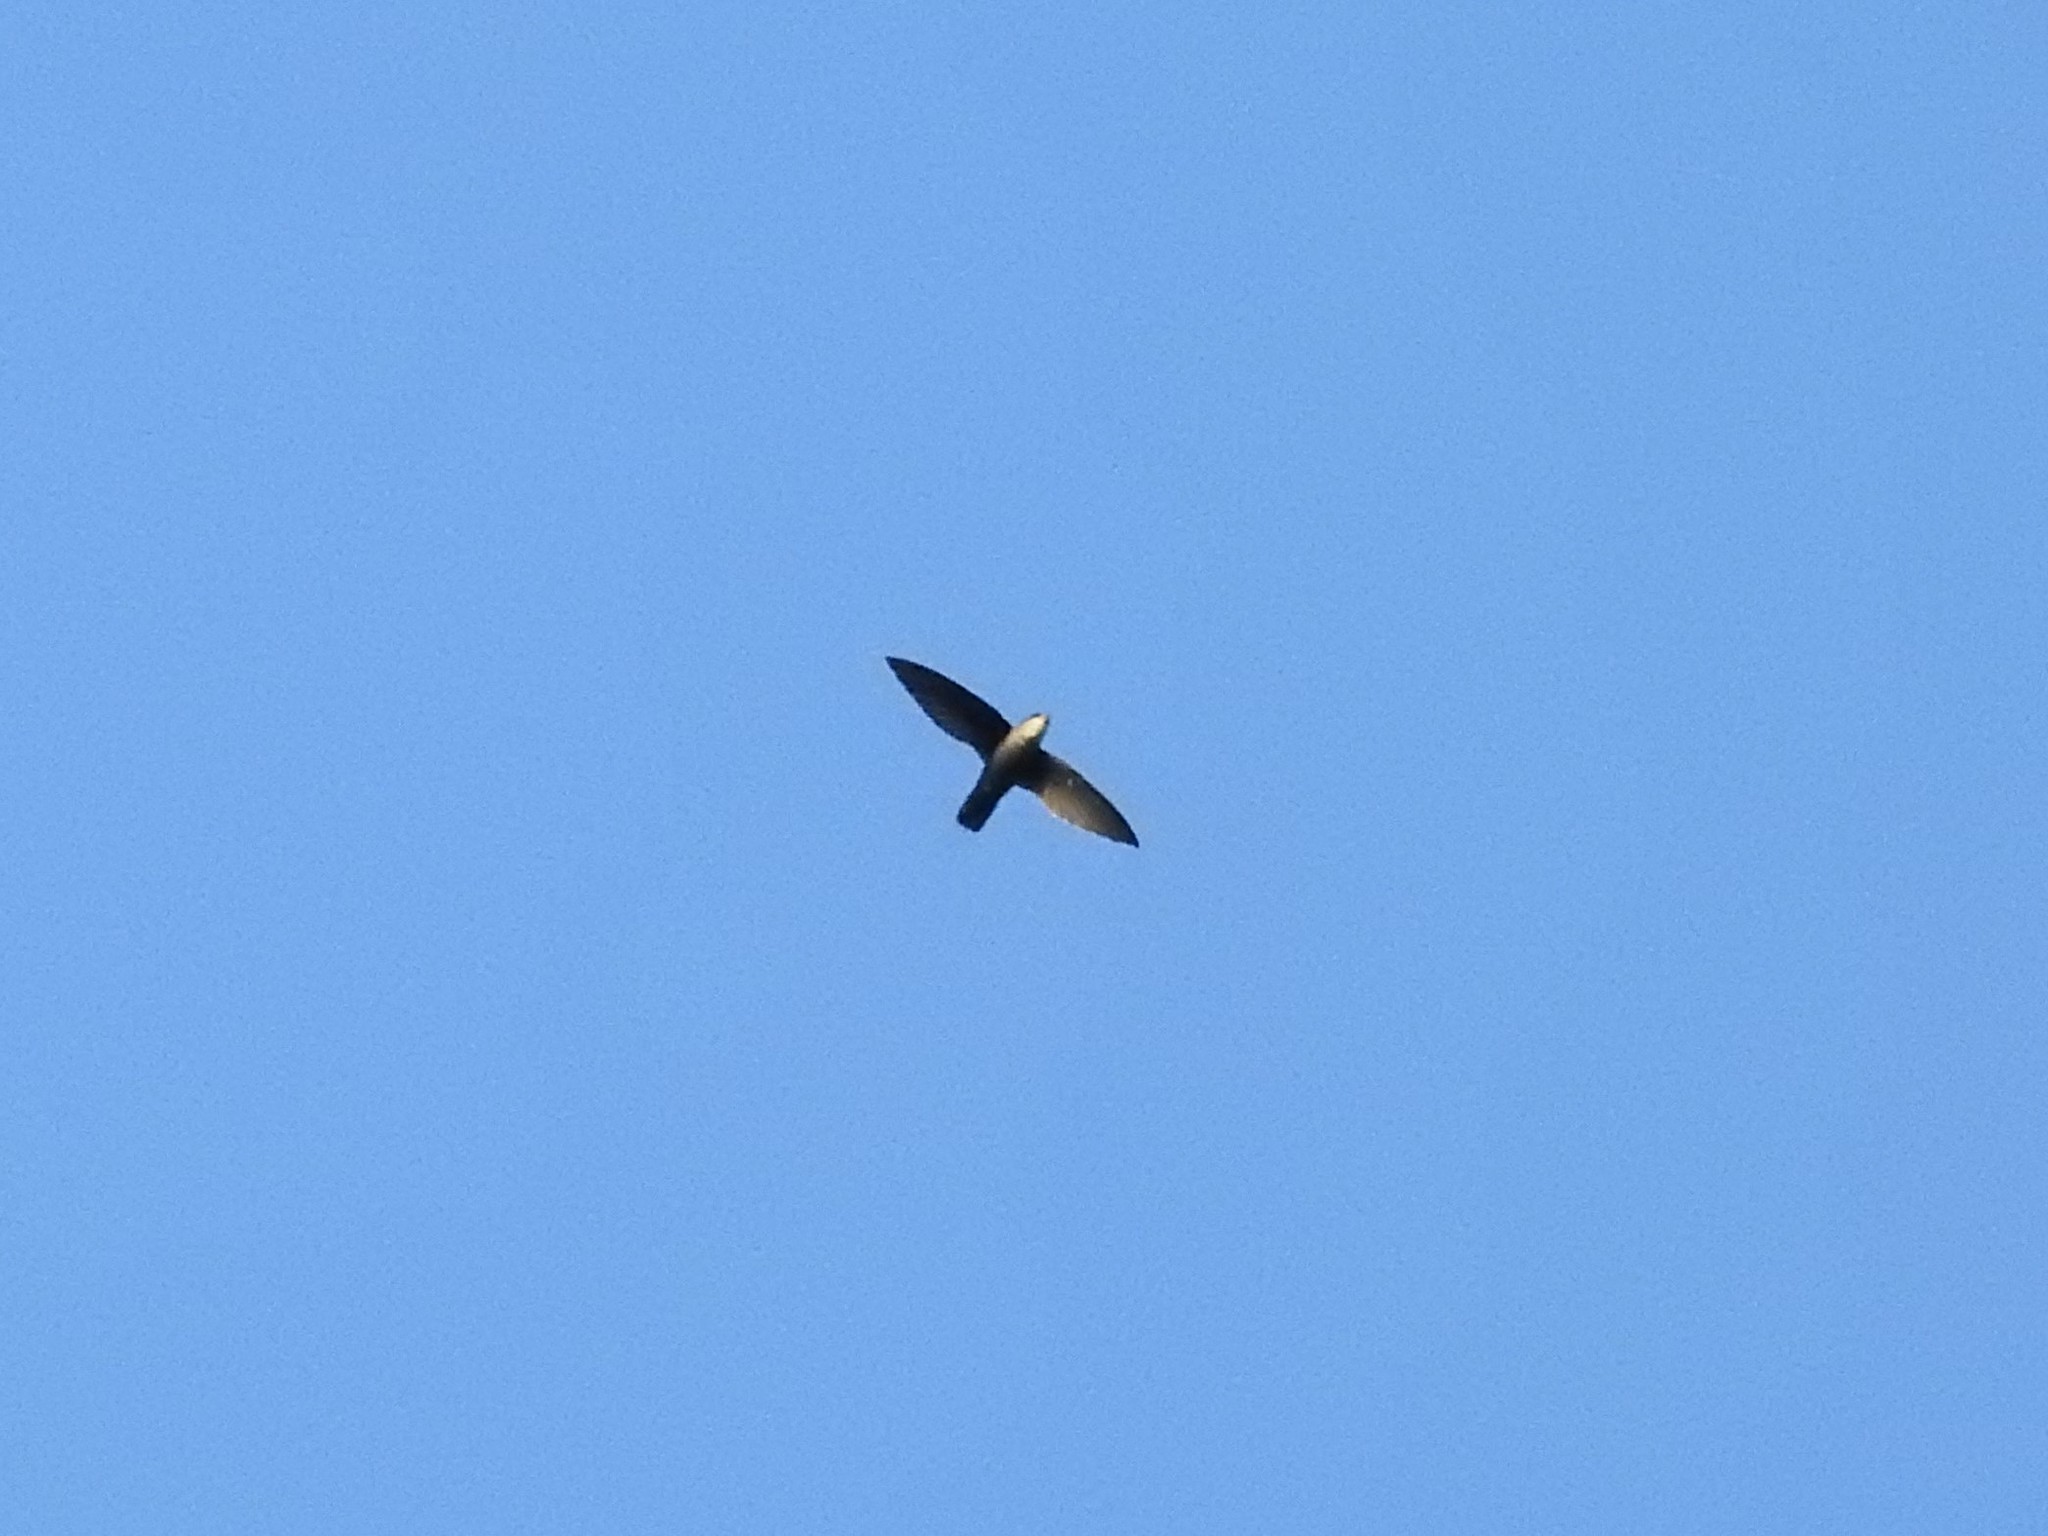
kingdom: Animalia
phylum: Chordata
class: Aves
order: Apodiformes
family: Apodidae
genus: Chaetura
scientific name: Chaetura cinereiventris
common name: Gray-rumped swift
